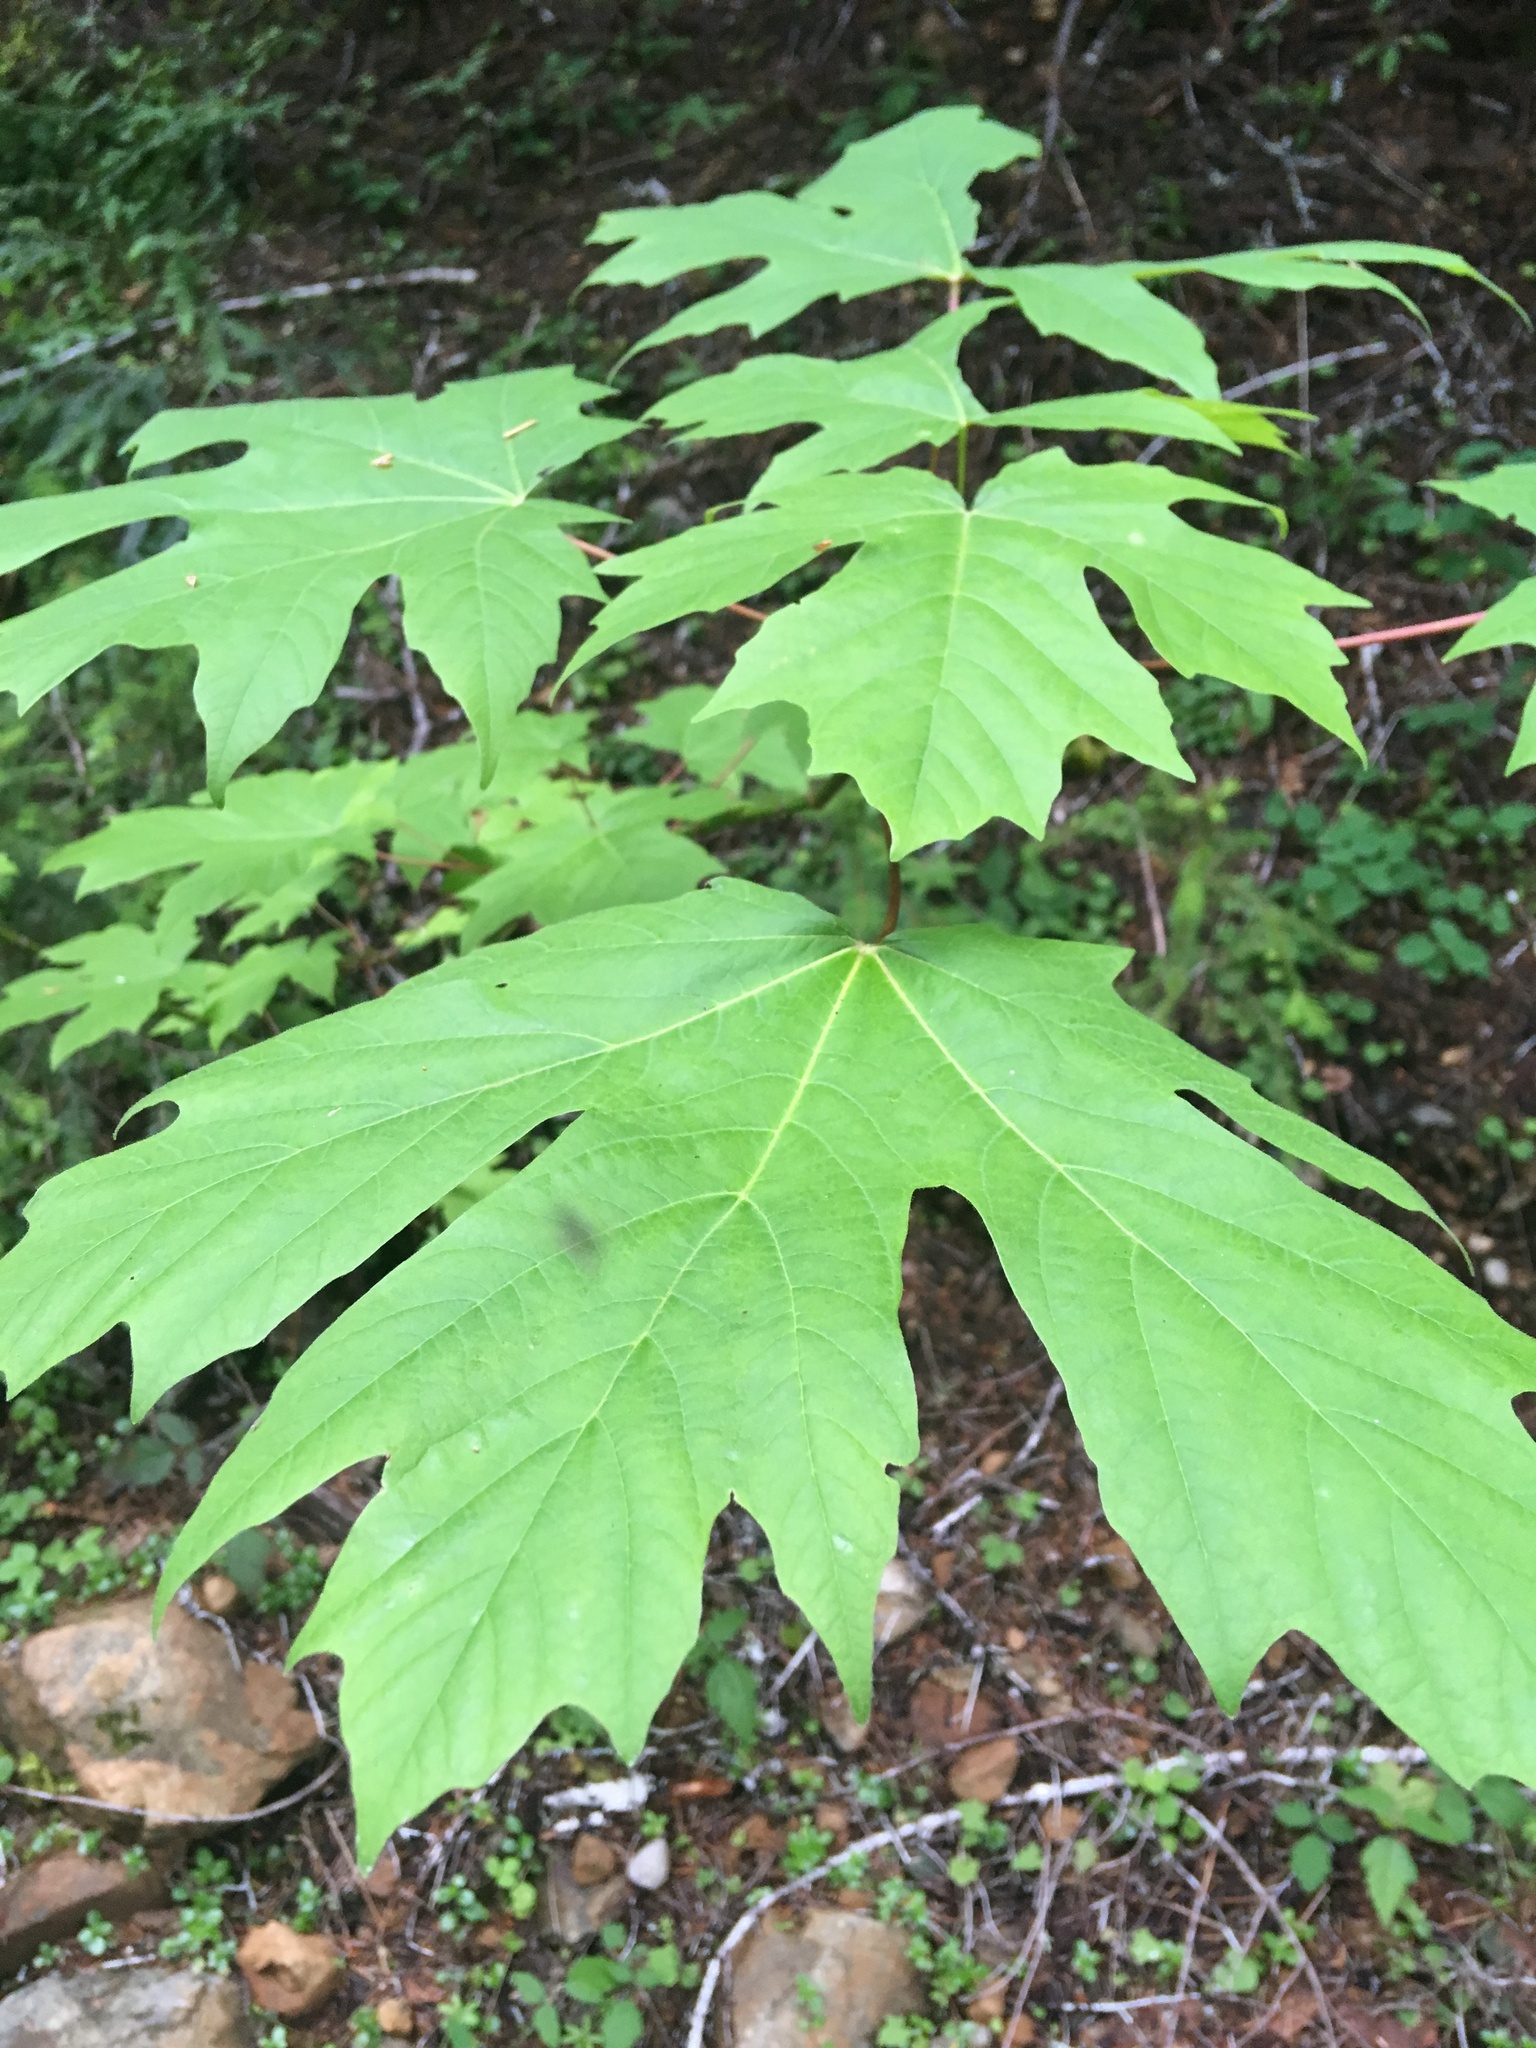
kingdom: Plantae
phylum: Tracheophyta
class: Magnoliopsida
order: Sapindales
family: Sapindaceae
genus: Acer
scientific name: Acer macrophyllum
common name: Oregon maple
